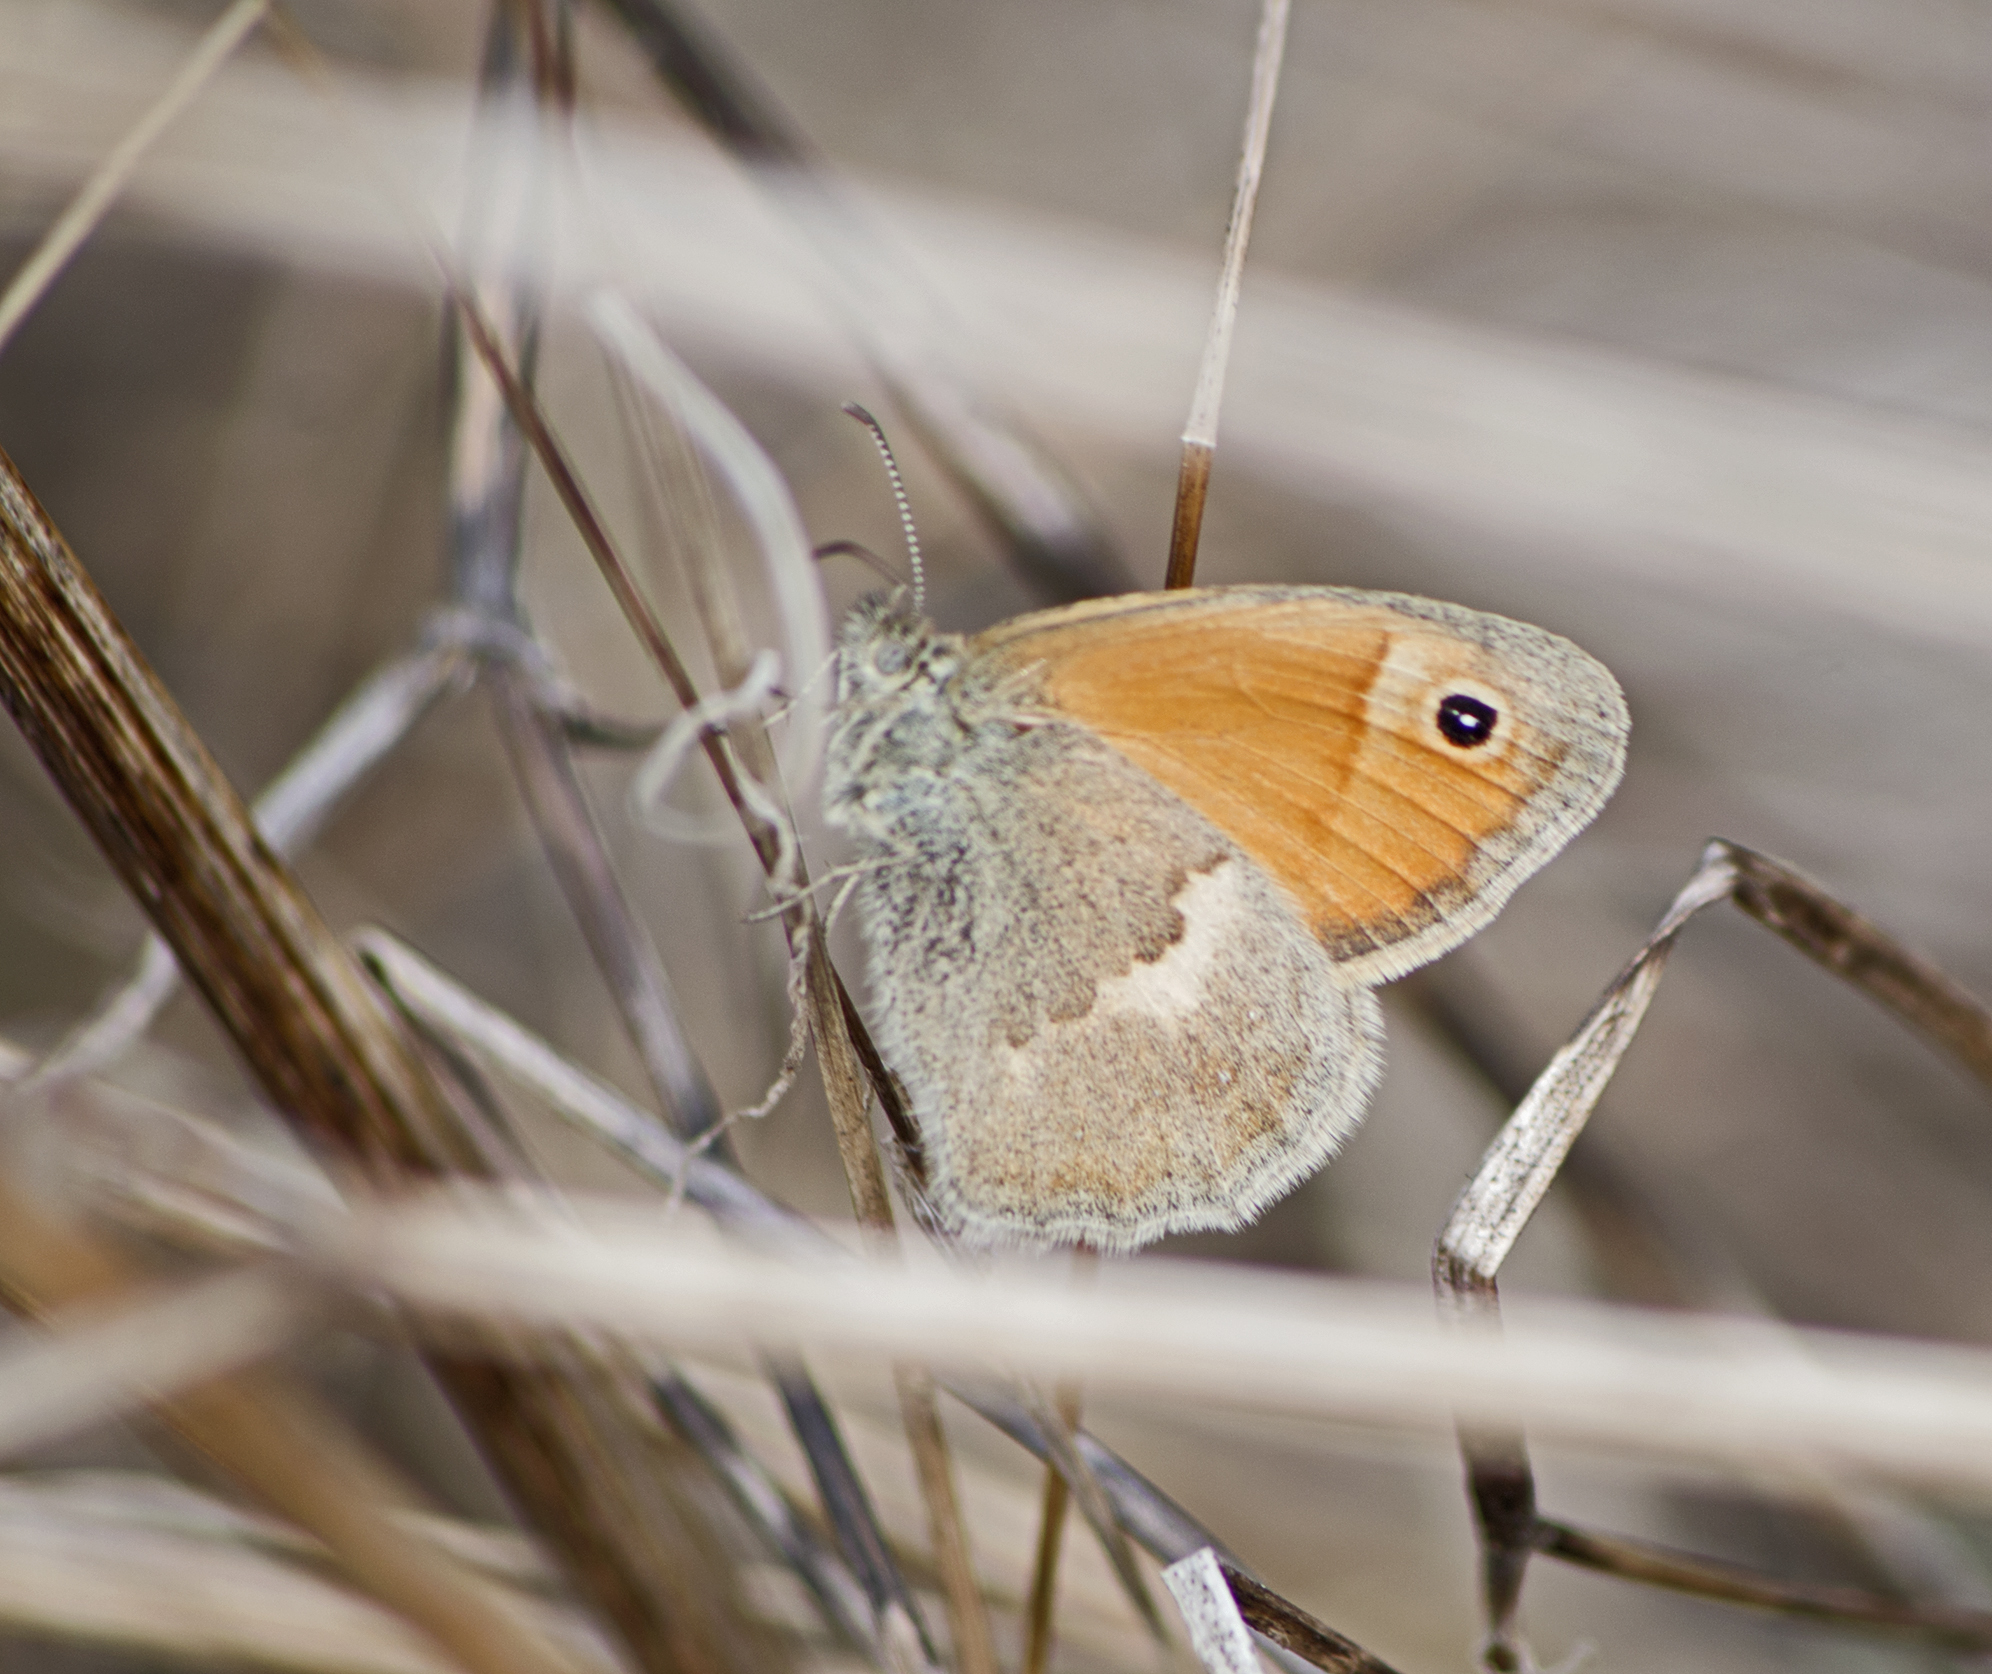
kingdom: Animalia
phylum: Arthropoda
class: Insecta
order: Lepidoptera
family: Nymphalidae
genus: Coenonympha
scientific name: Coenonympha pamphilus
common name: Small heath
